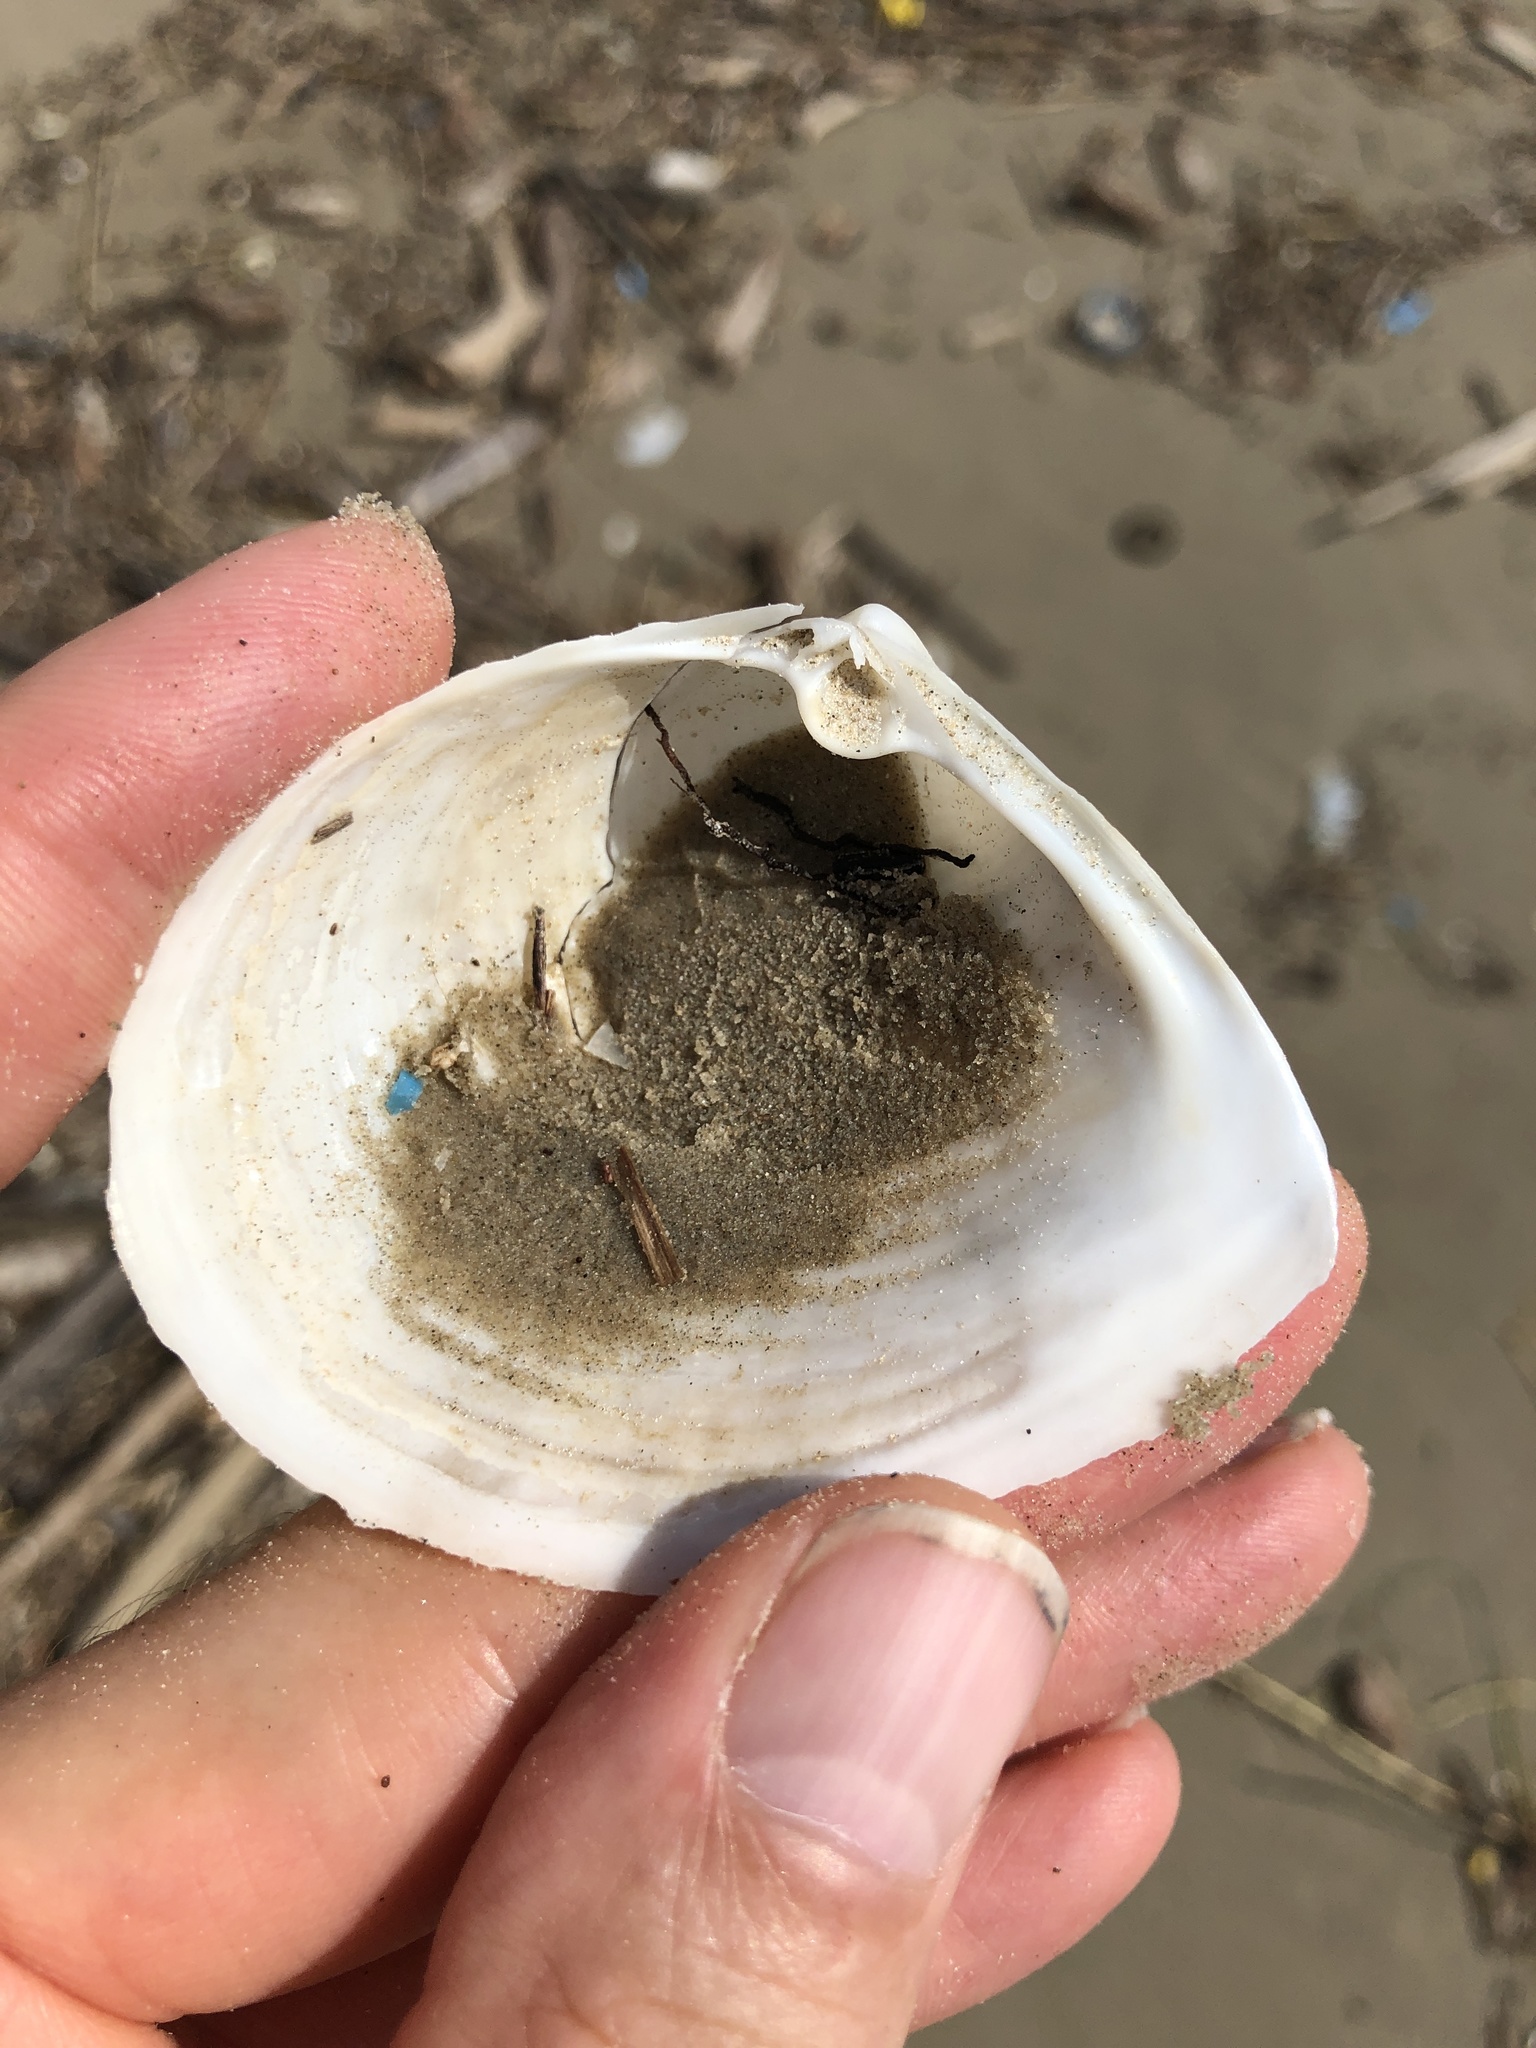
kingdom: Animalia
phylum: Mollusca
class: Bivalvia
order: Venerida
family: Anatinellidae
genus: Raeta
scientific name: Raeta plicatella
